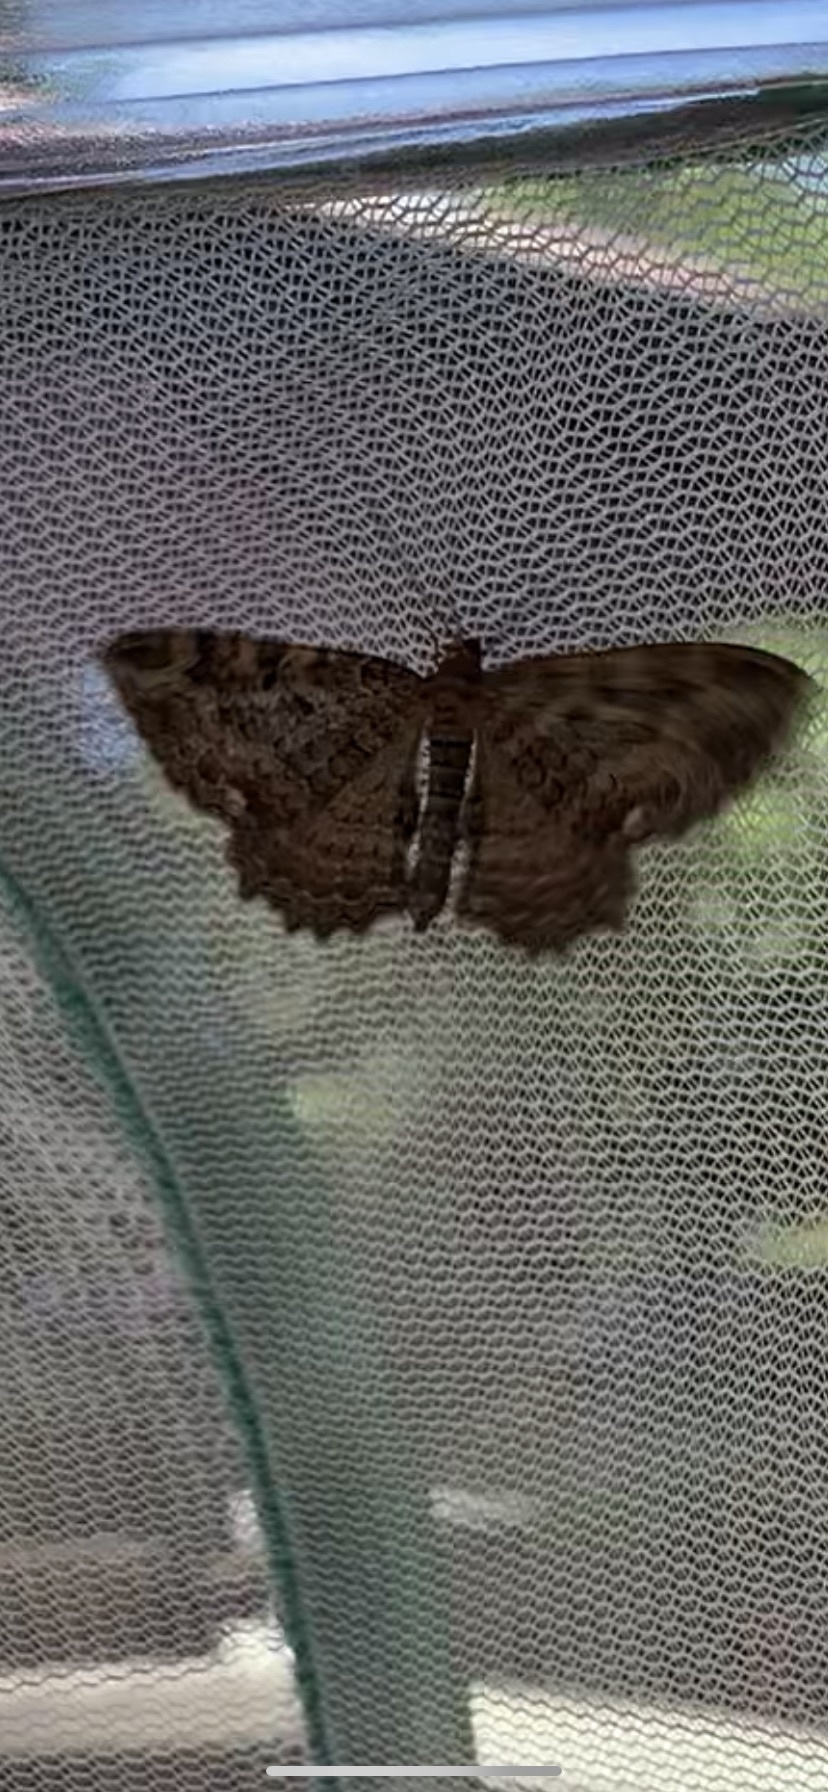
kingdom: Animalia
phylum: Arthropoda
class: Insecta
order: Lepidoptera
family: Geometridae
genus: Rheumaptera
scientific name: Rheumaptera
